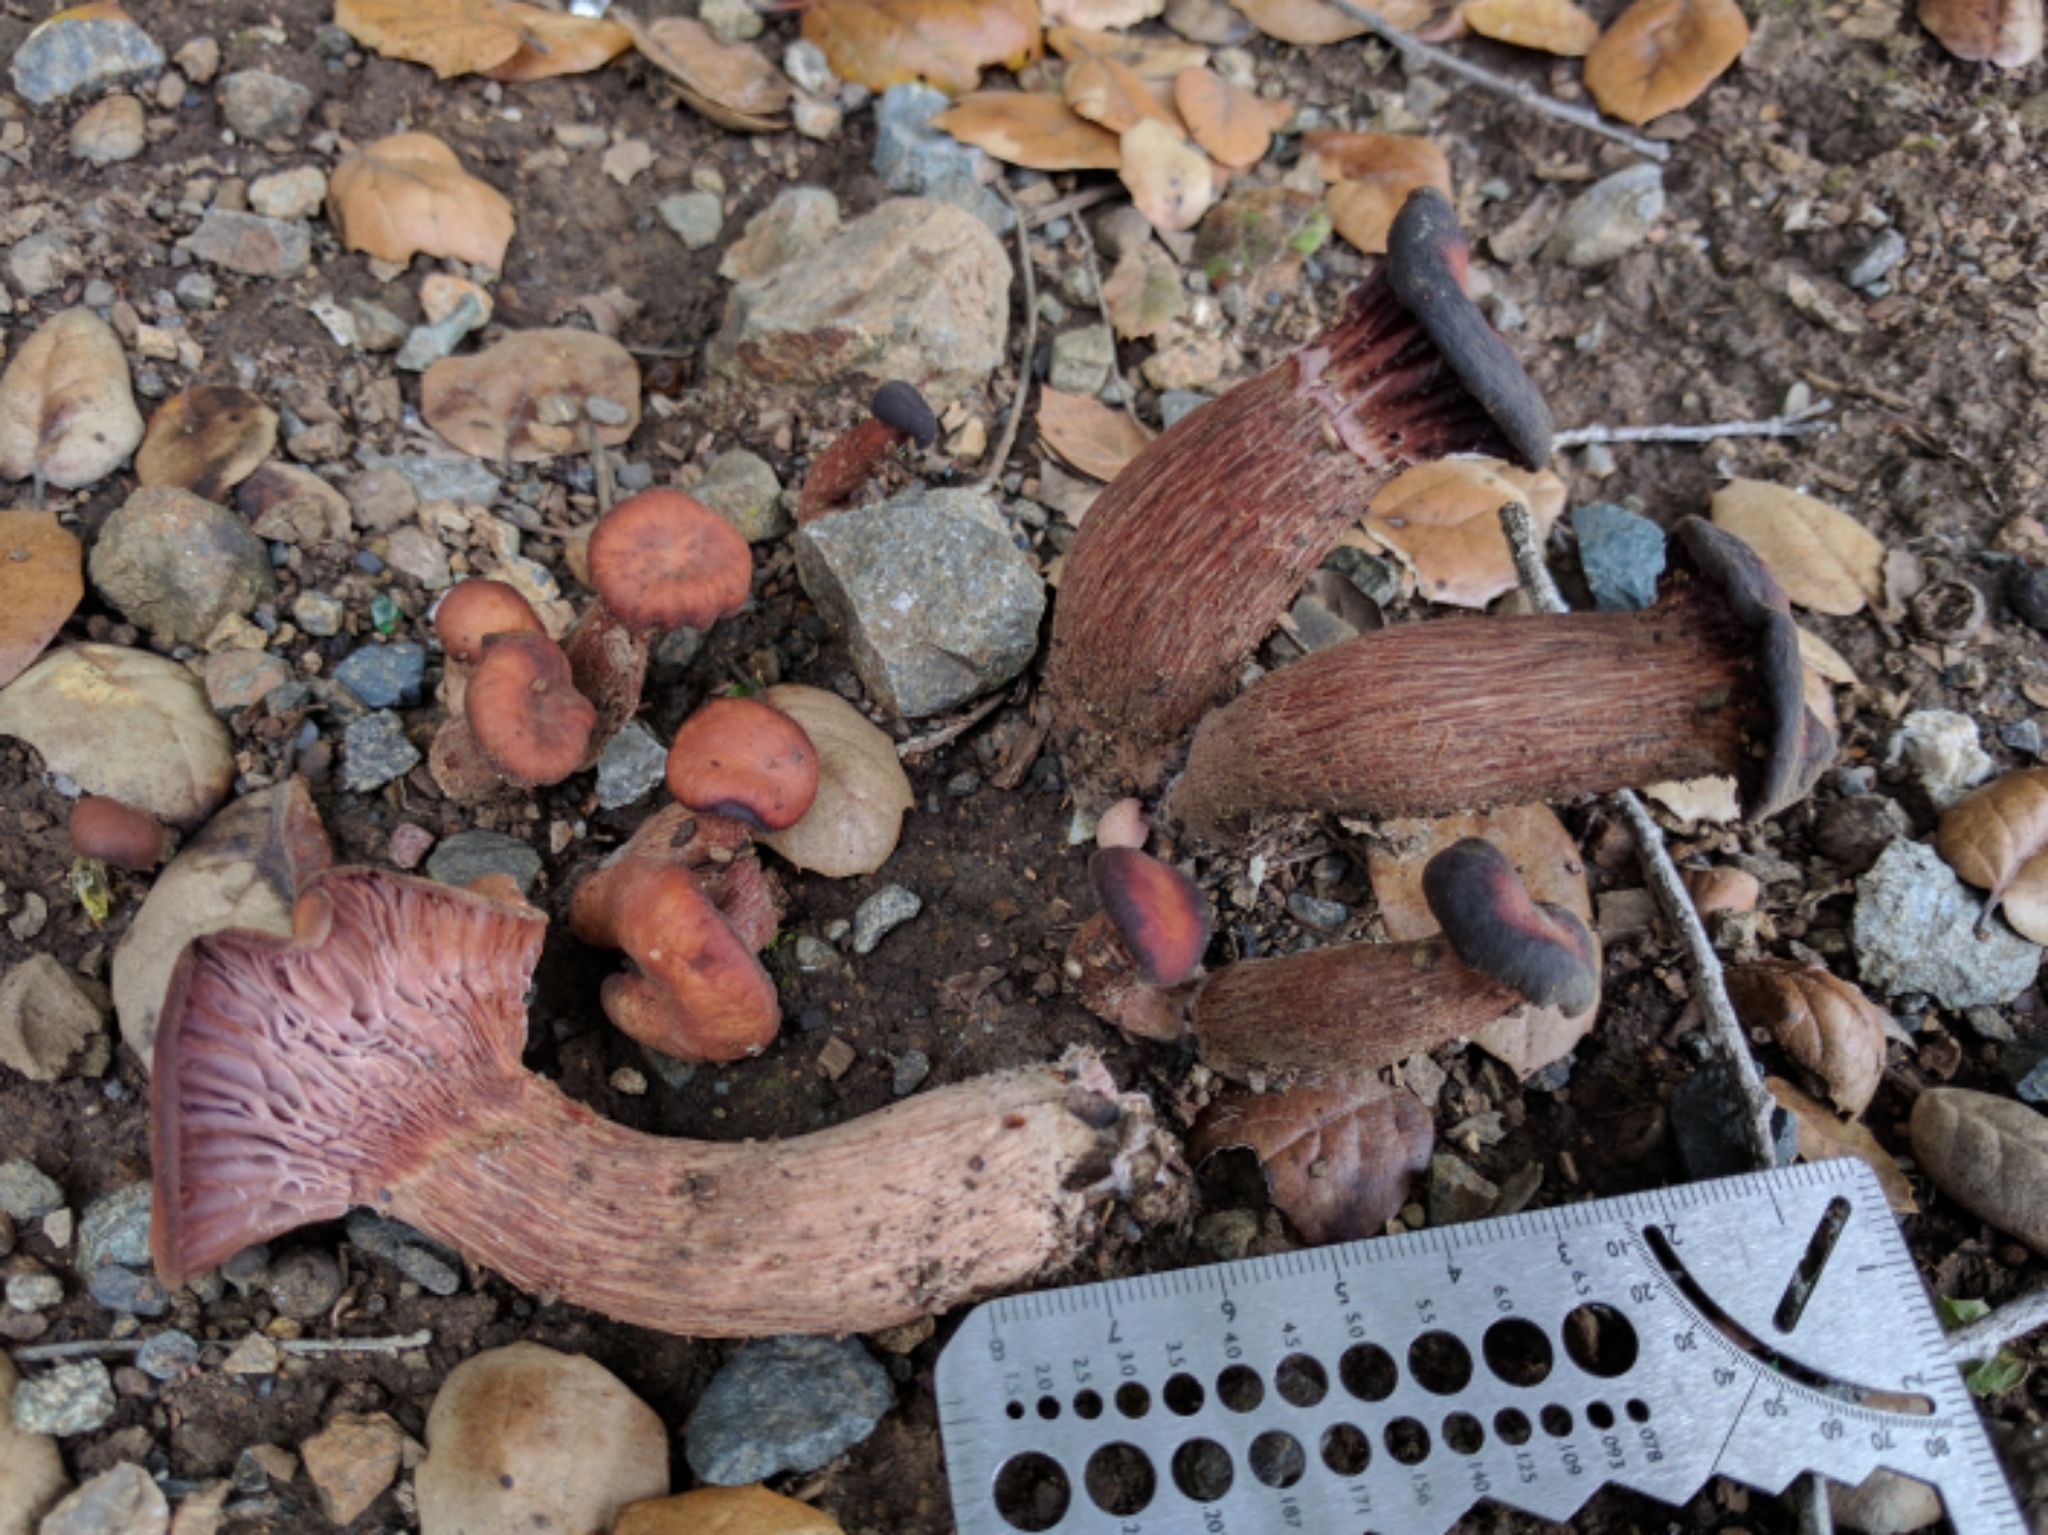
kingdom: Fungi
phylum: Basidiomycota
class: Agaricomycetes
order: Agaricales
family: Hydnangiaceae
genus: Laccaria
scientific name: Laccaria amethysteo-occidentalis
